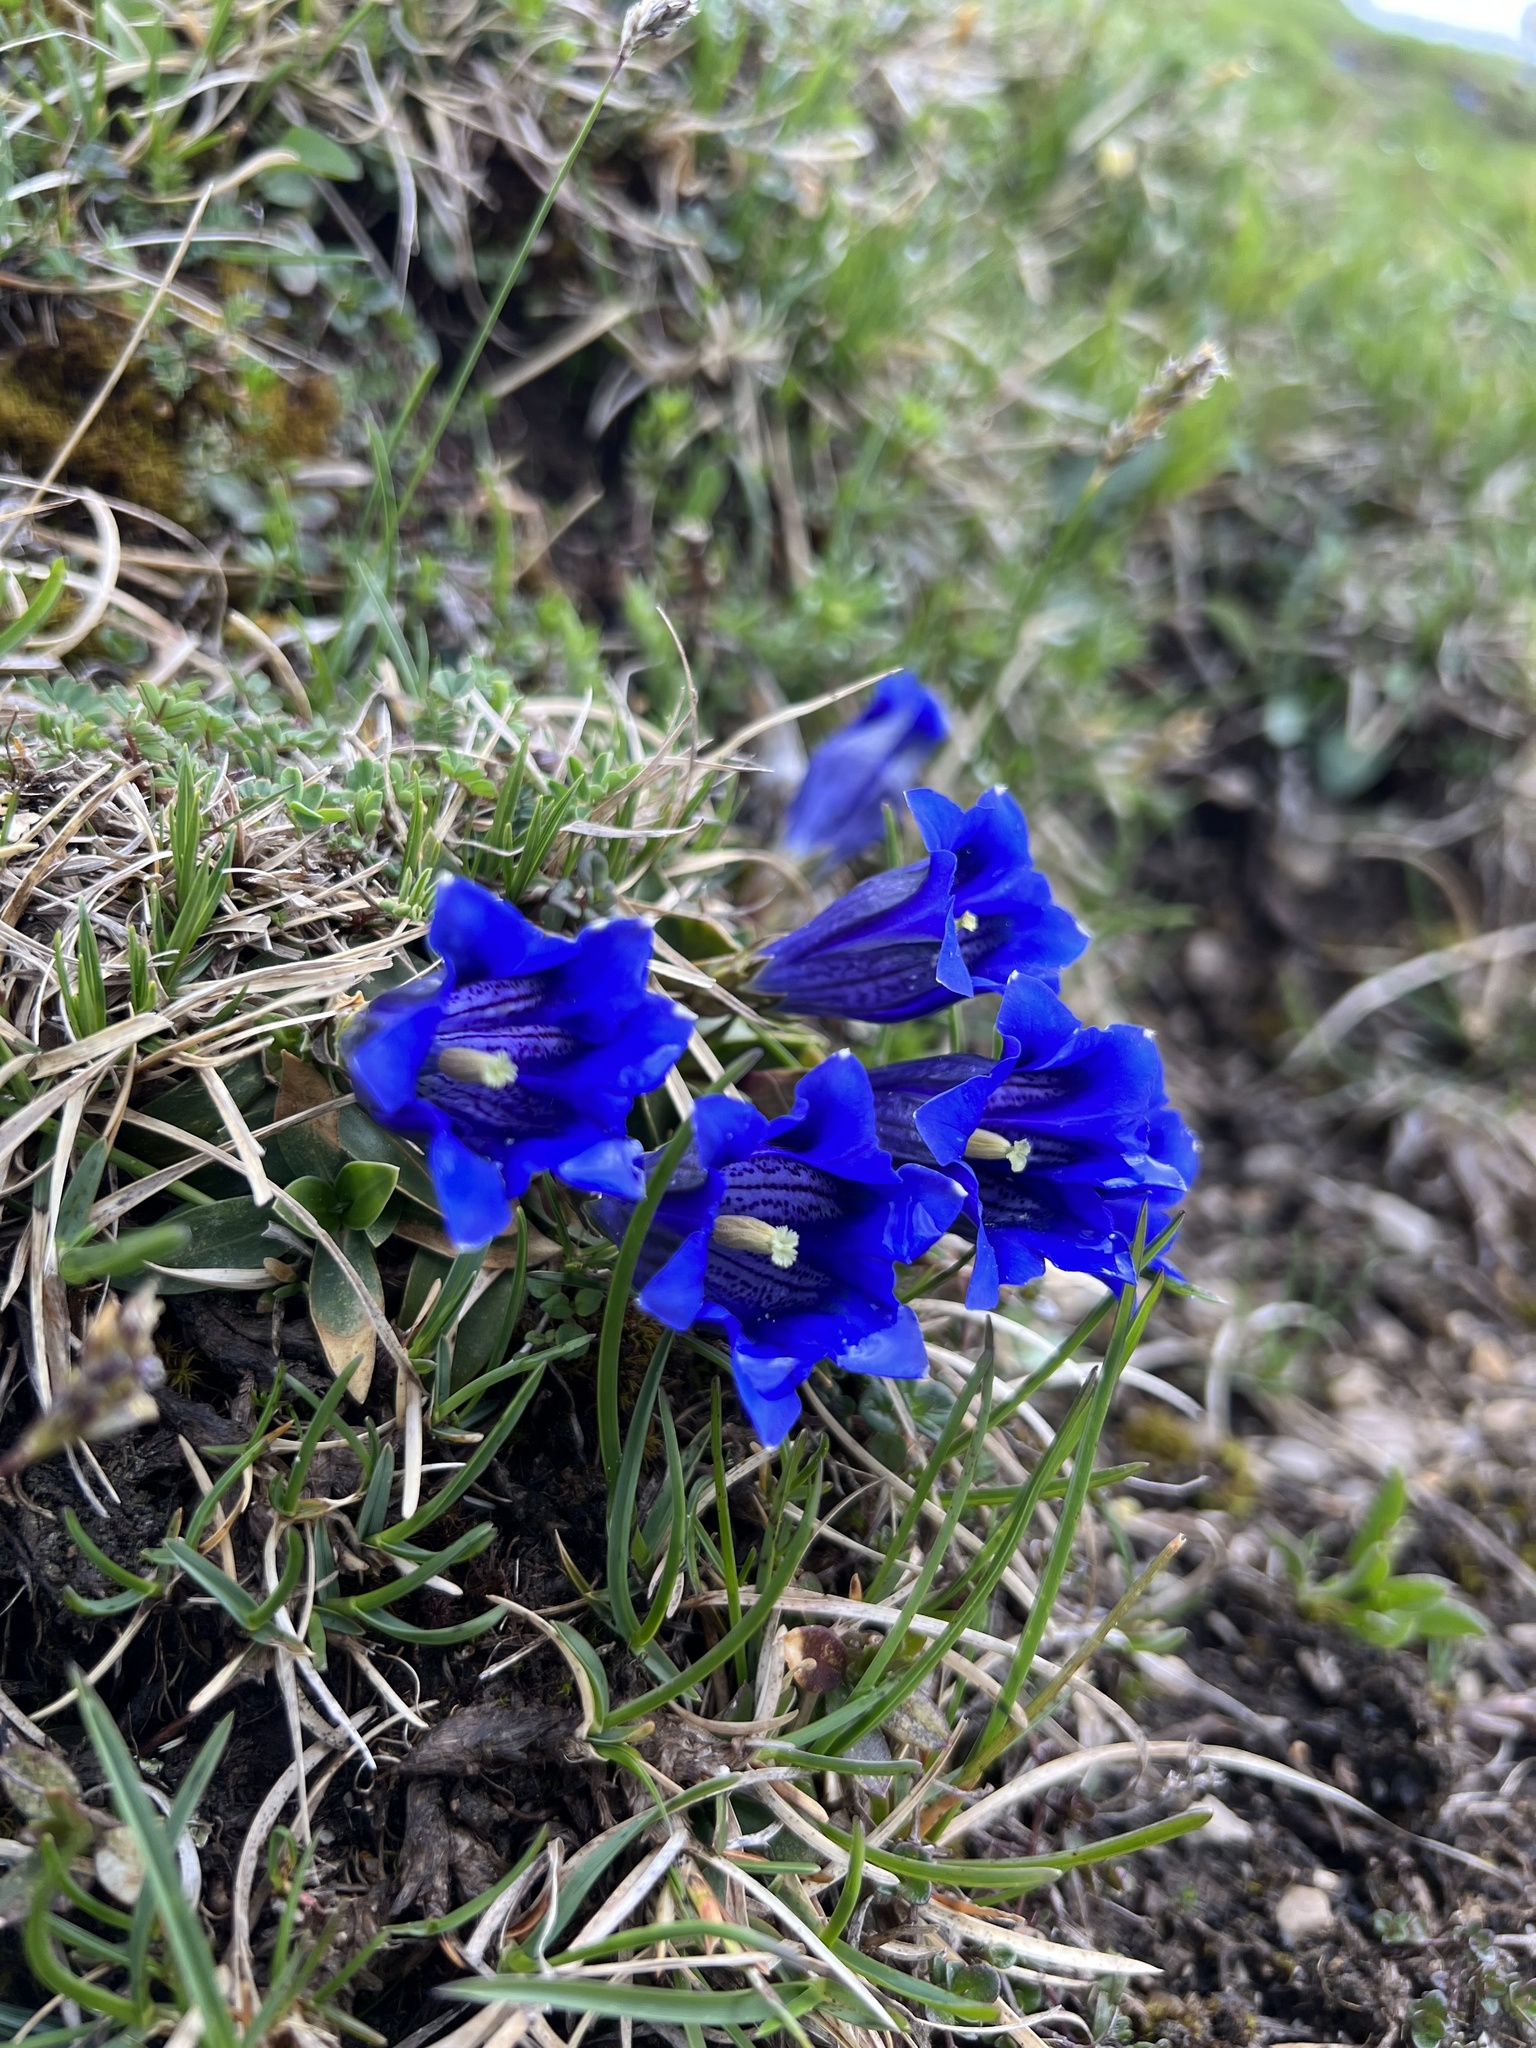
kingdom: Plantae
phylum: Tracheophyta
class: Magnoliopsida
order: Gentianales
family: Gentianaceae
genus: Gentiana
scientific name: Gentiana clusii
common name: Trumpet gentian
